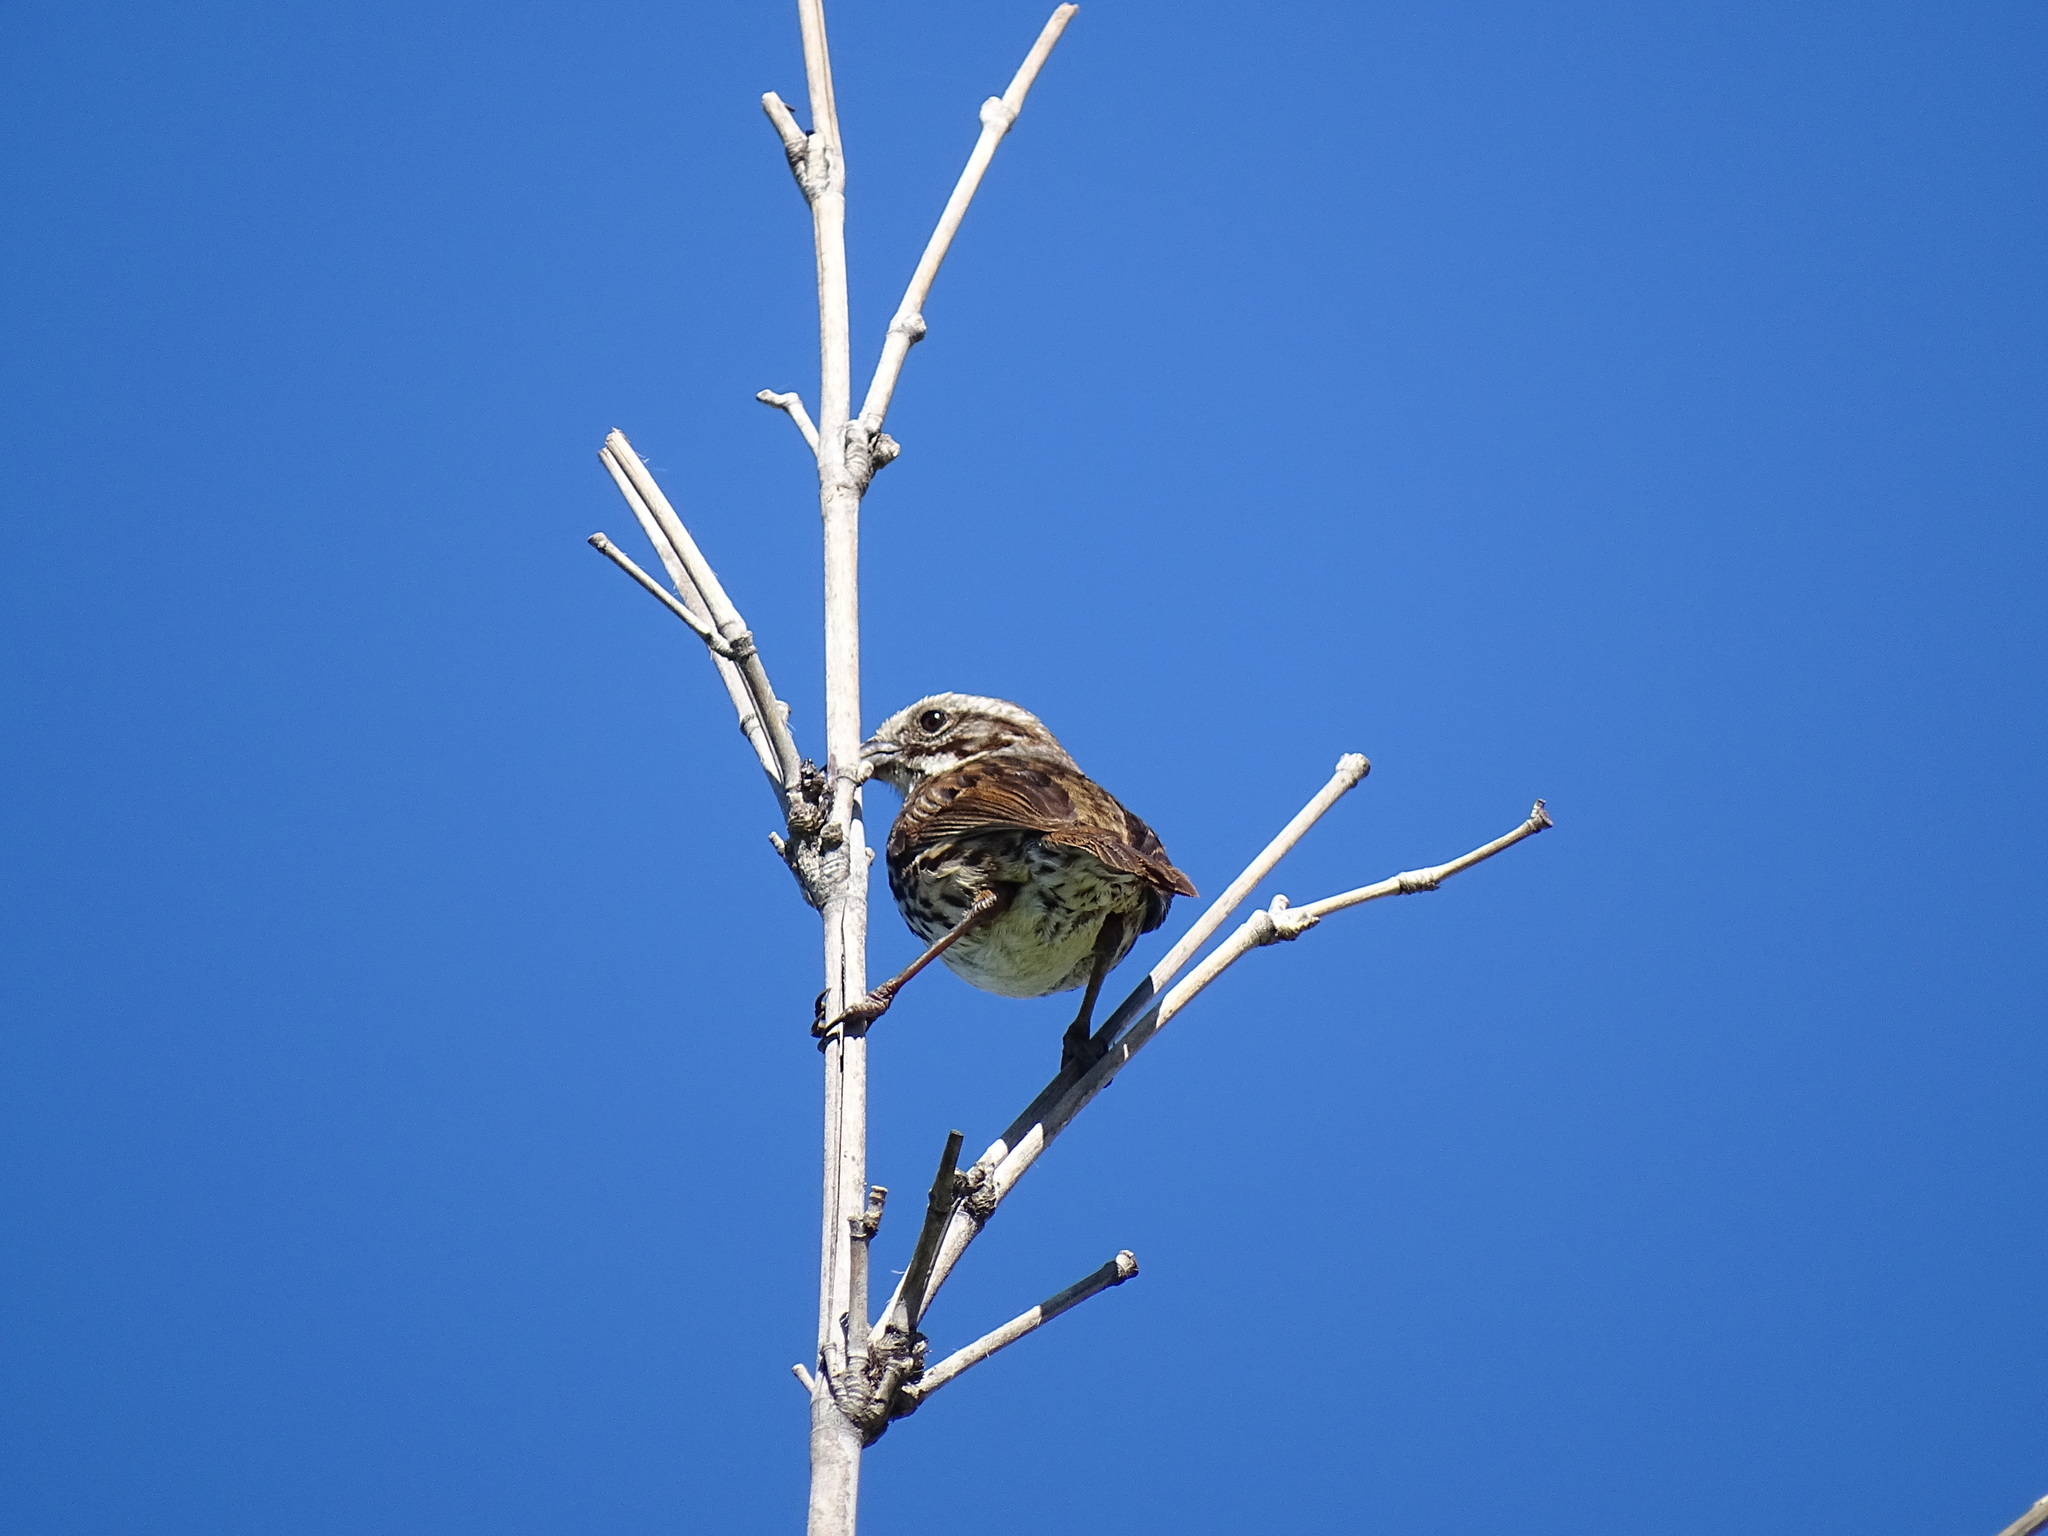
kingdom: Animalia
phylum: Chordata
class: Aves
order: Passeriformes
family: Passerellidae
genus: Melospiza
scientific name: Melospiza melodia
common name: Song sparrow
